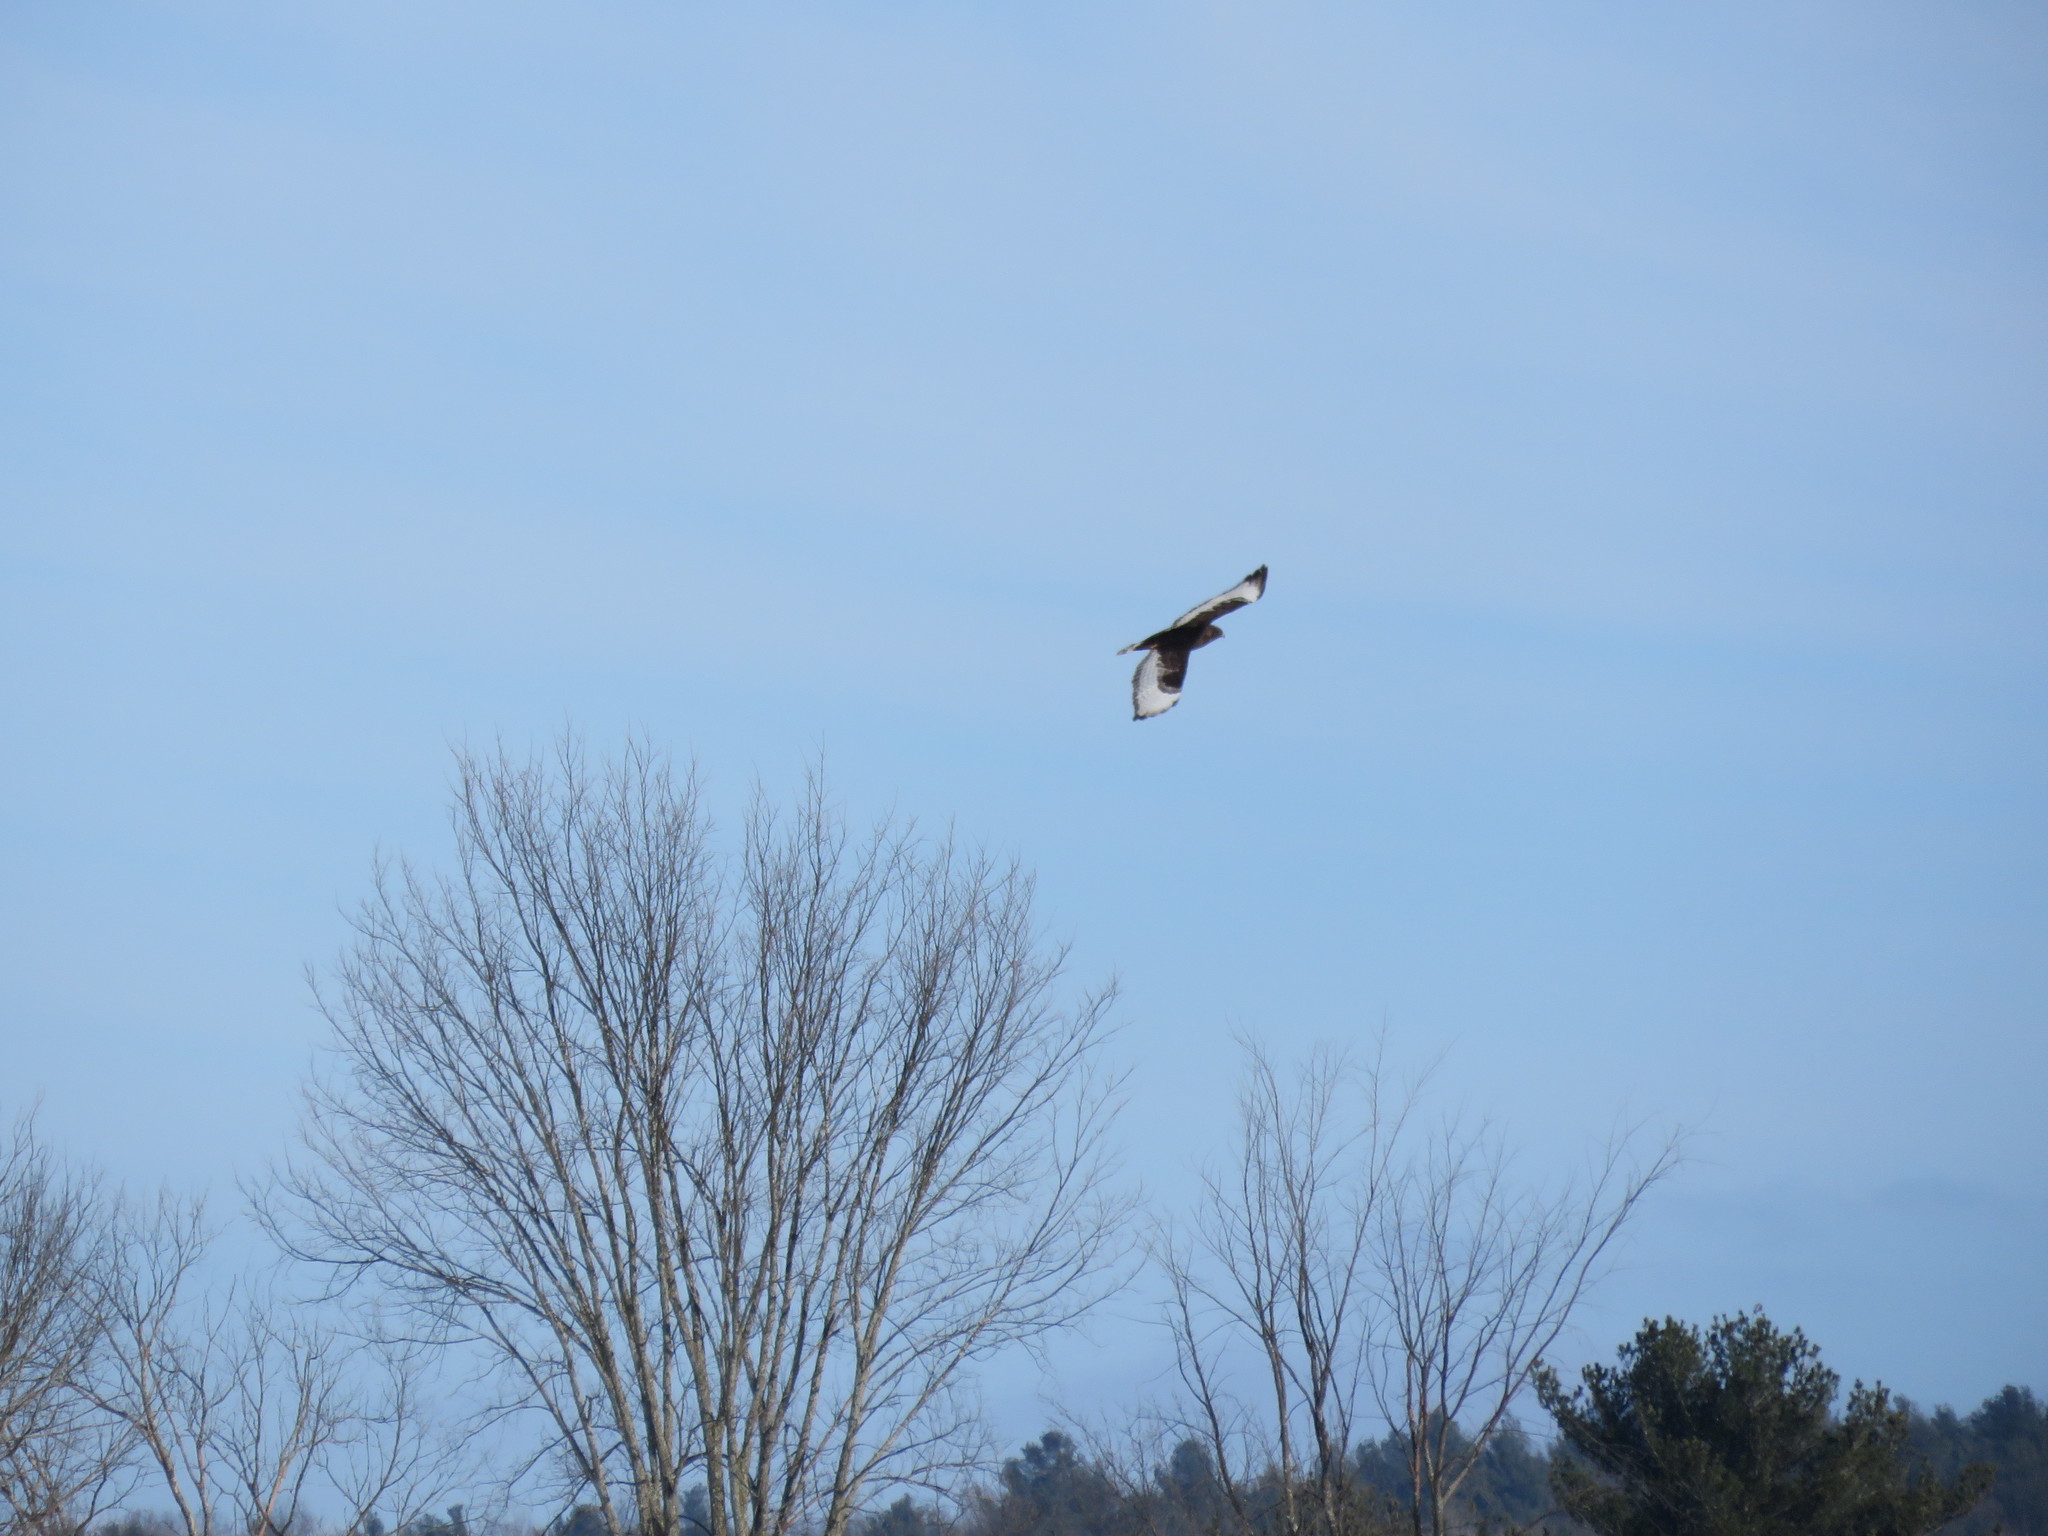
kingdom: Animalia
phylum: Chordata
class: Aves
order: Accipitriformes
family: Accipitridae
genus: Buteo
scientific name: Buteo lagopus
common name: Rough-legged buzzard
